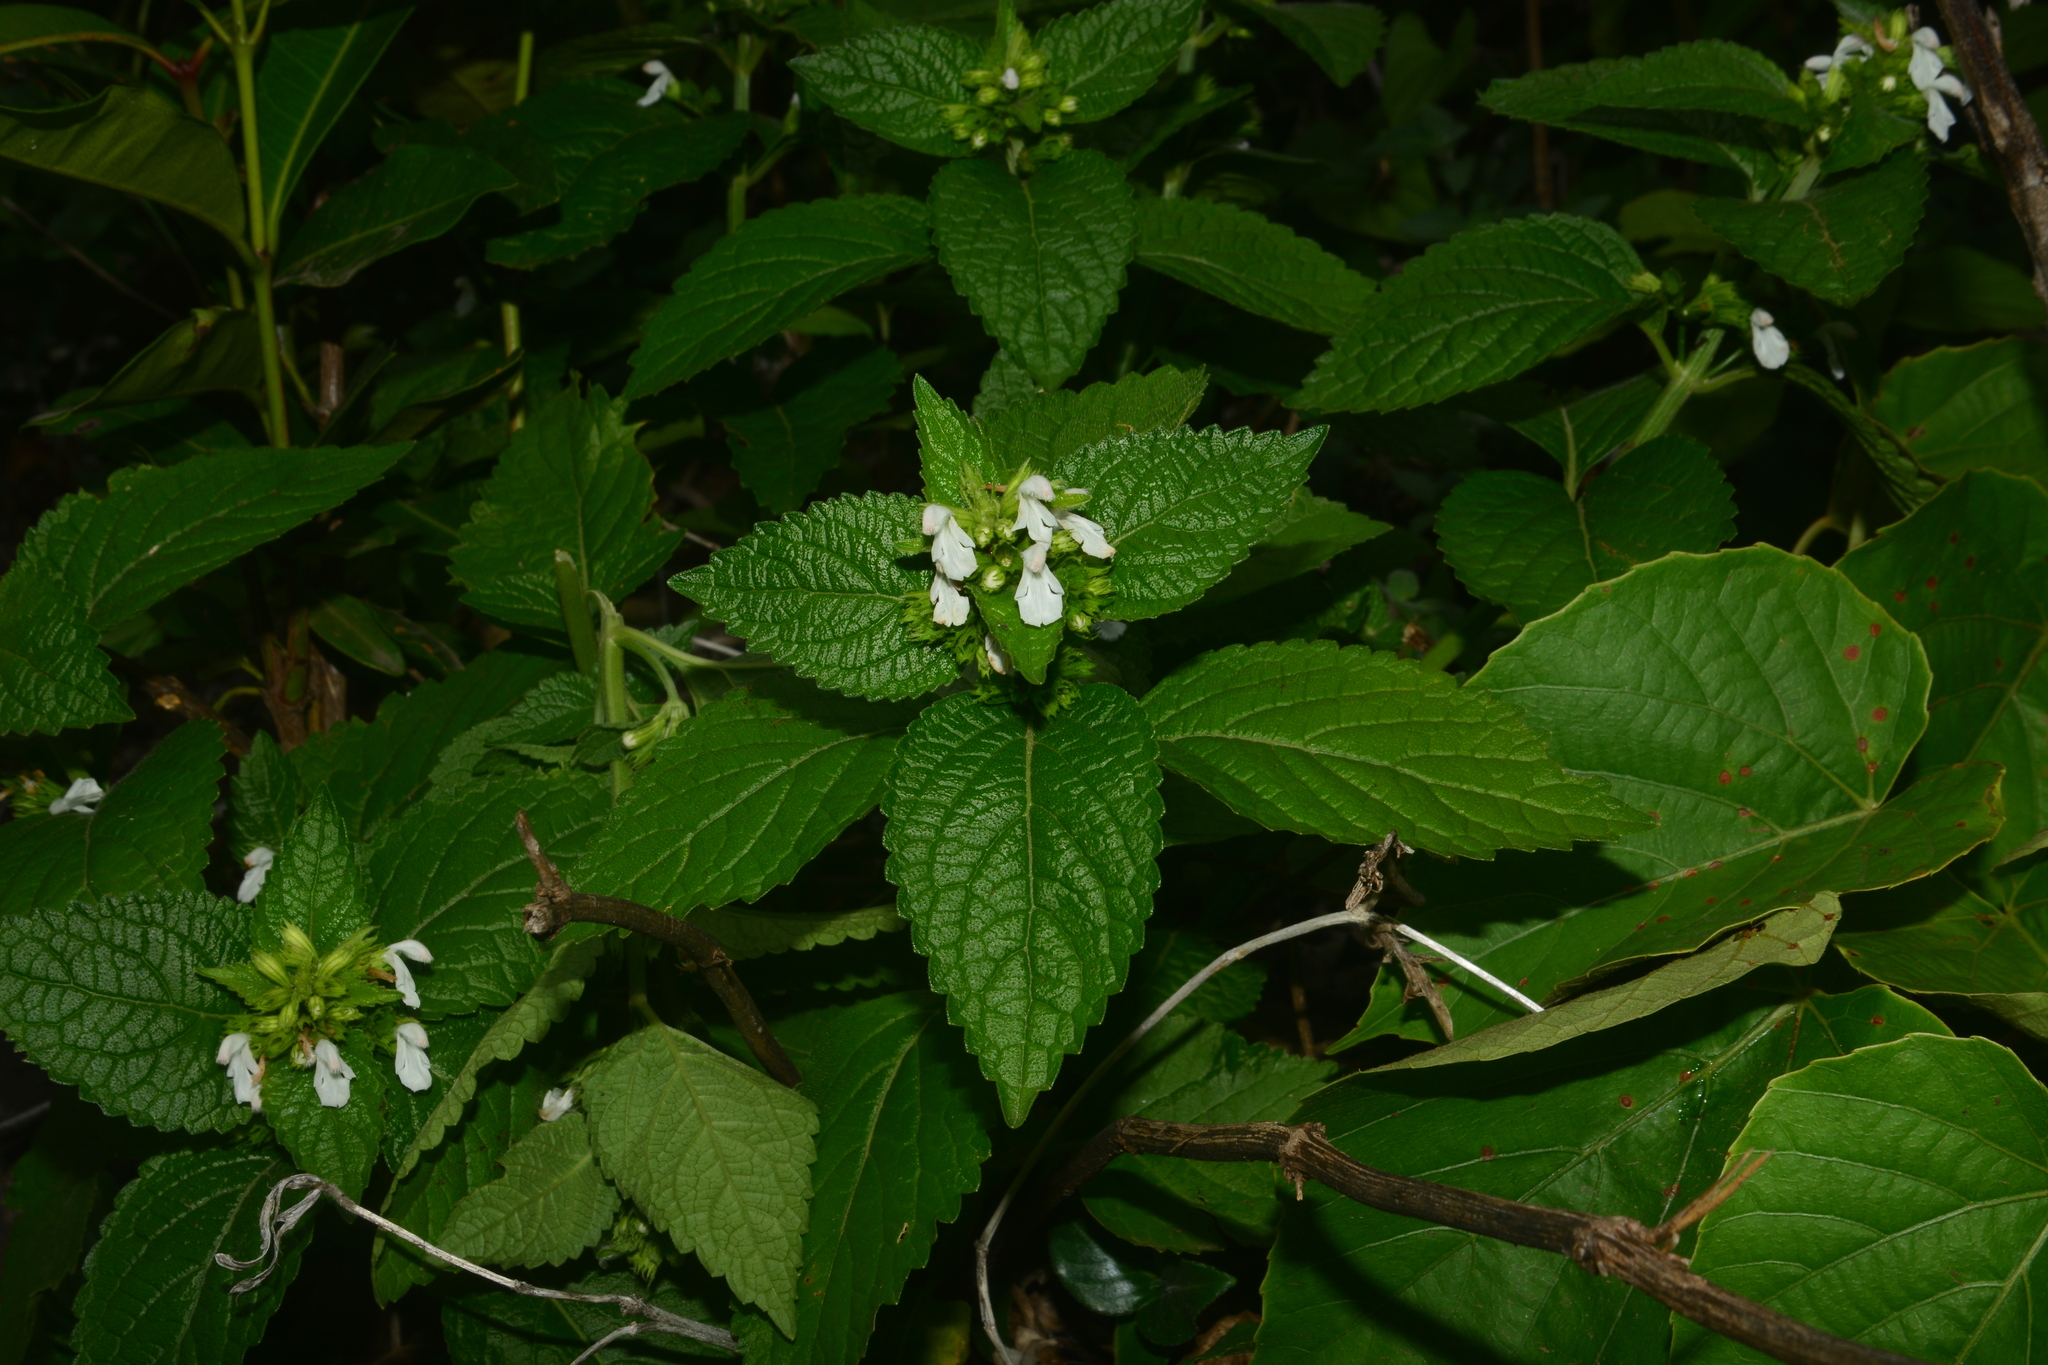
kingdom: Plantae
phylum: Tracheophyta
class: Magnoliopsida
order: Lamiales
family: Lamiaceae
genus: Leucas
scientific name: Leucas deodikarii
